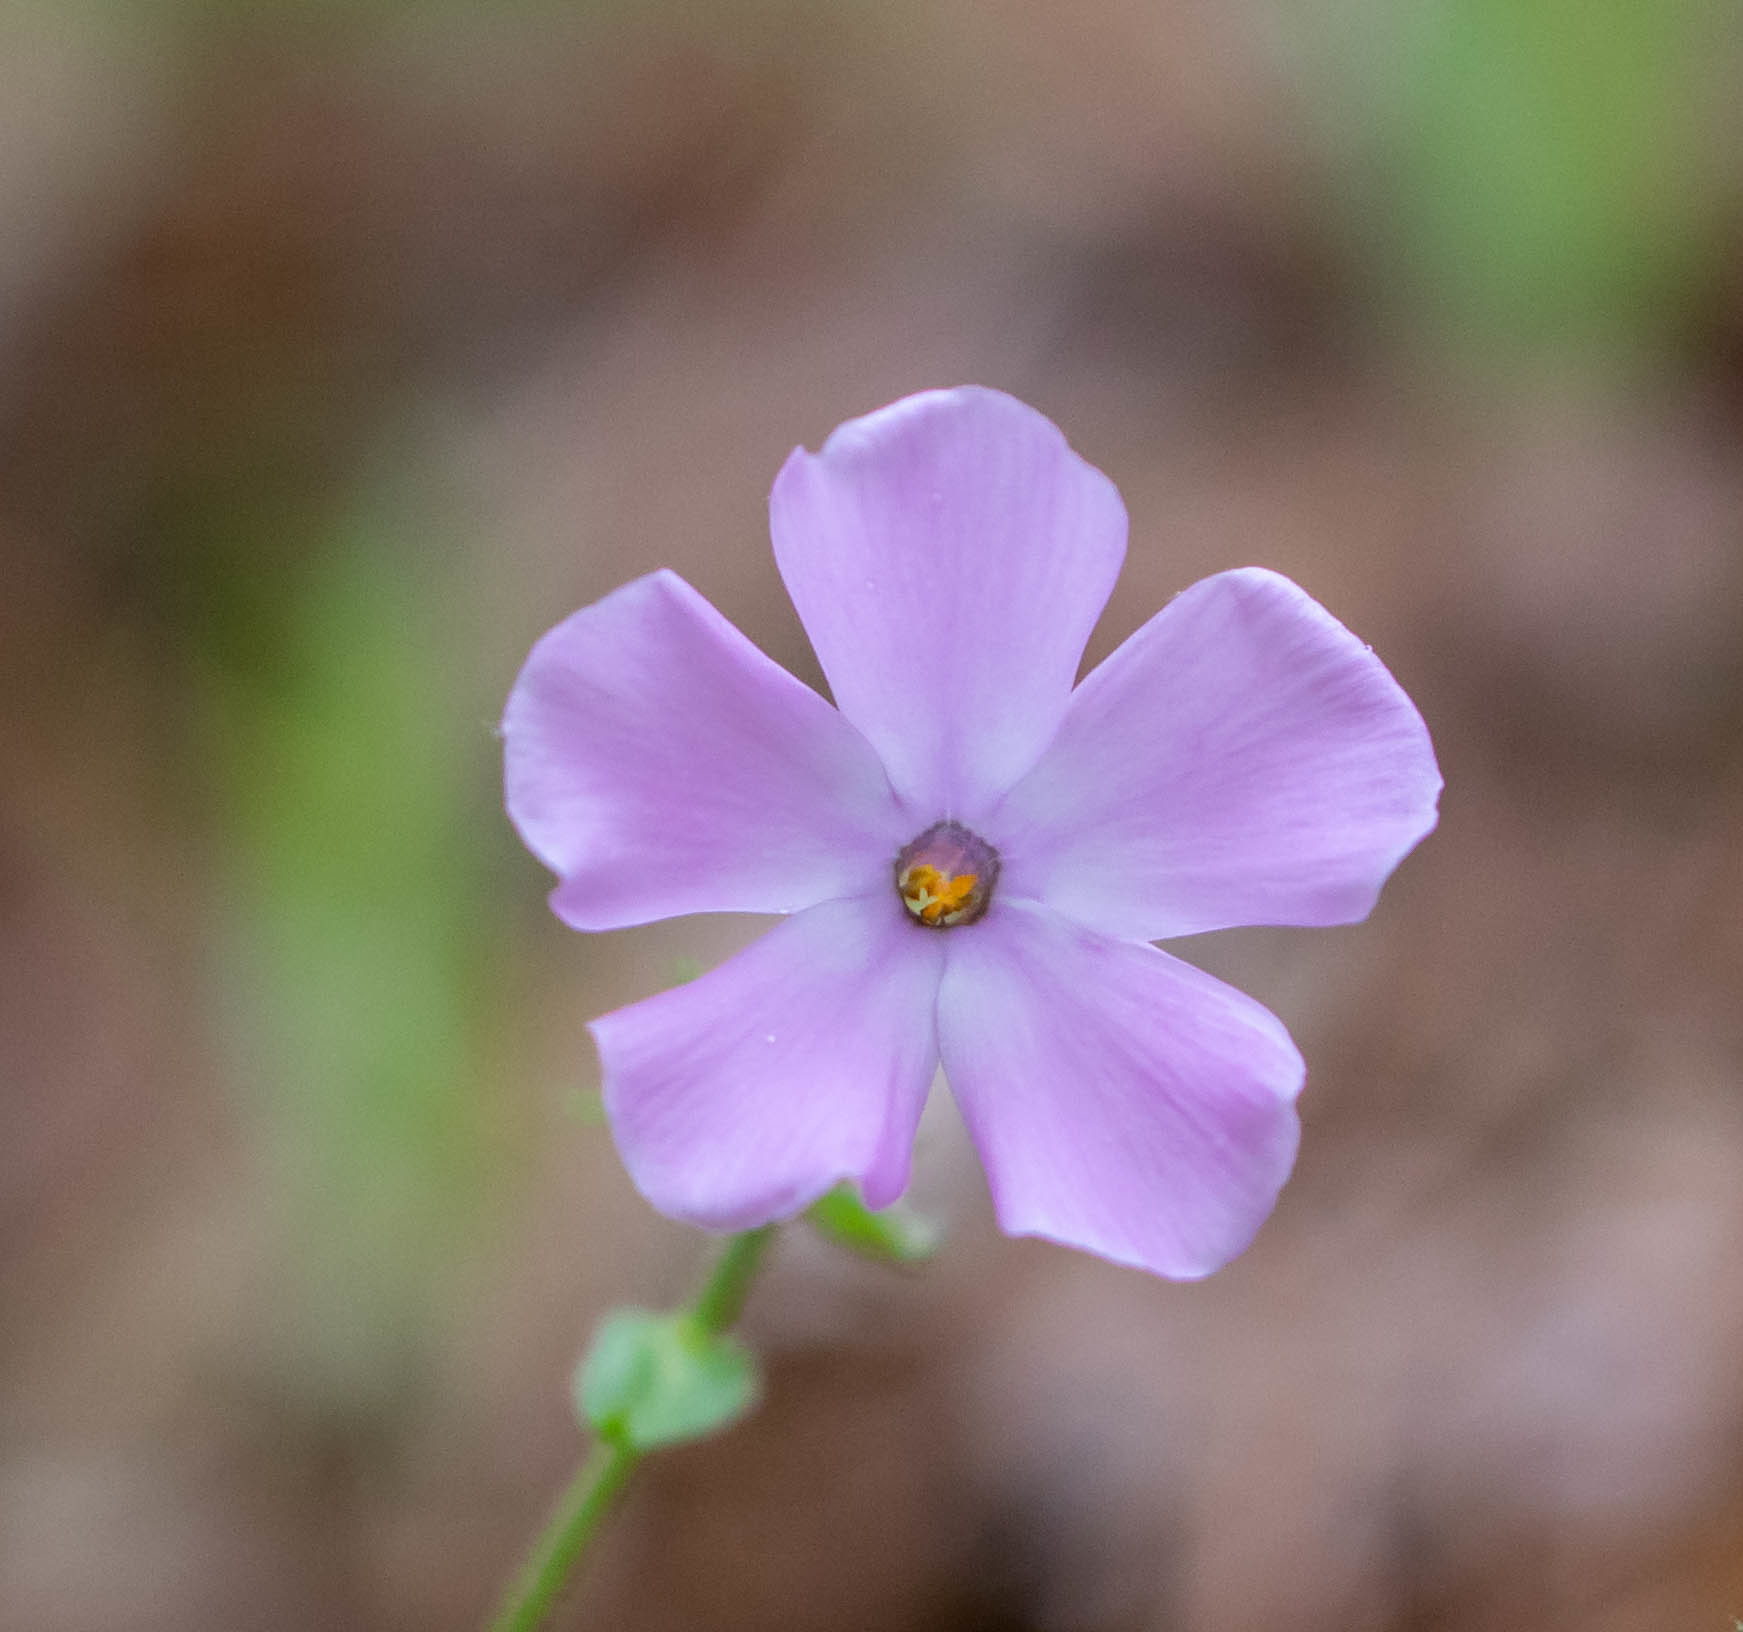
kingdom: Plantae
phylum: Tracheophyta
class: Magnoliopsida
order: Ericales
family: Polemoniaceae
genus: Phlox
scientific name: Phlox buckleyi
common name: Shale-barren phlox
